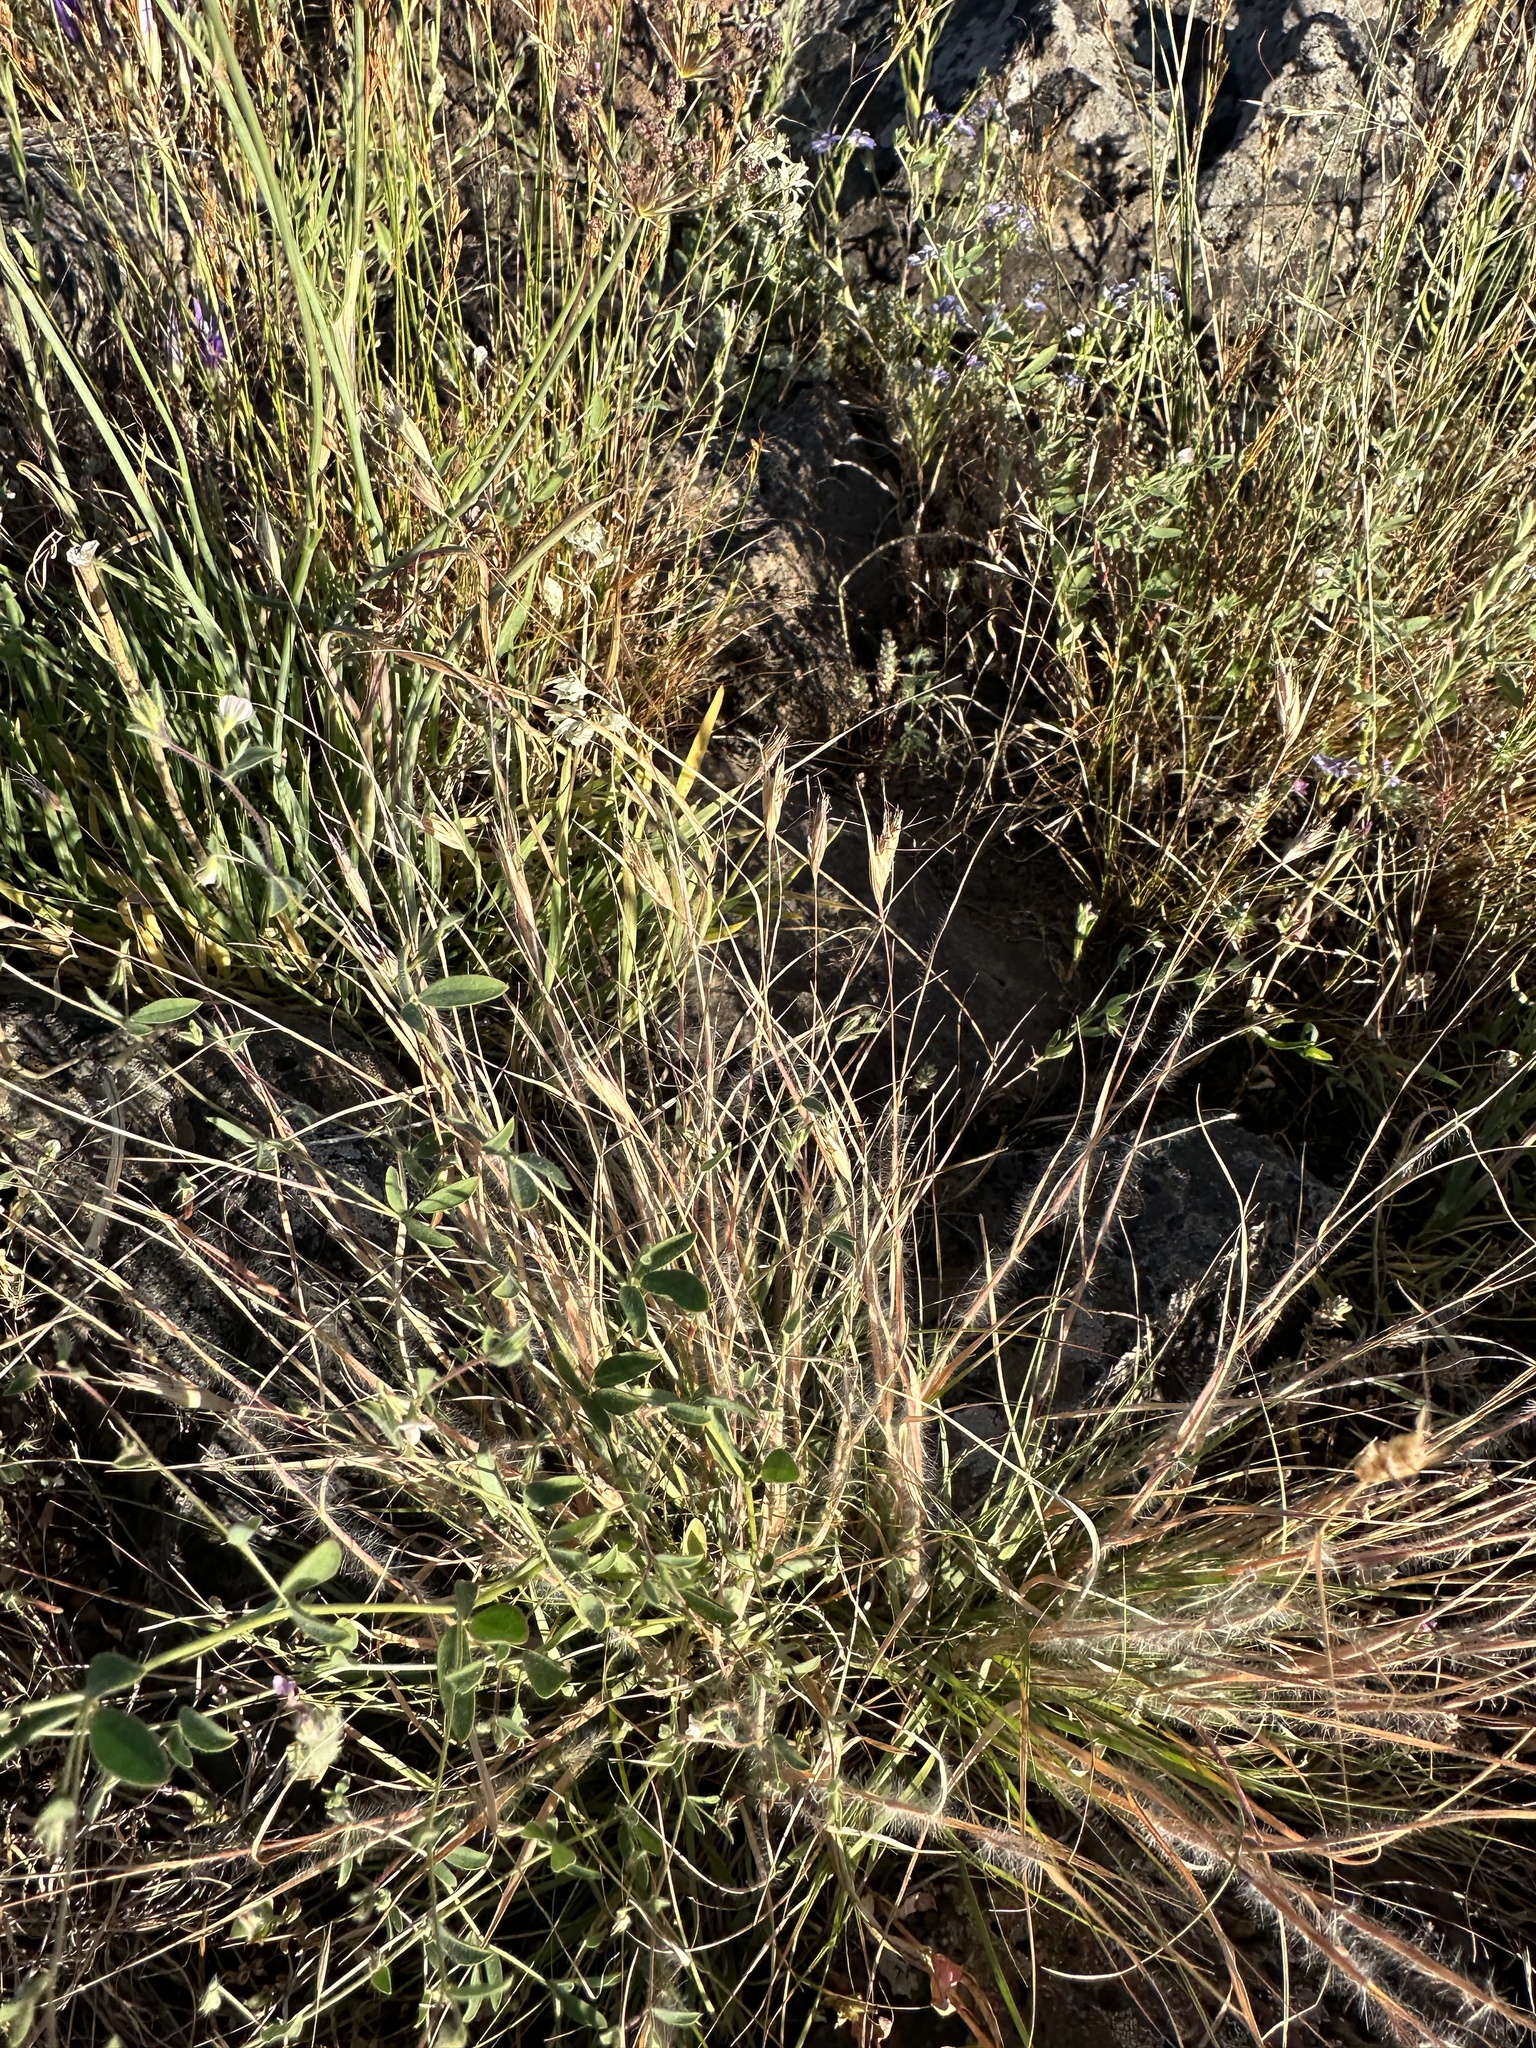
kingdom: Plantae
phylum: Tracheophyta
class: Liliopsida
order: Poales
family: Poaceae
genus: Danthonia
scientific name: Danthonia unispicata
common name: Few-flowered oatgrass
